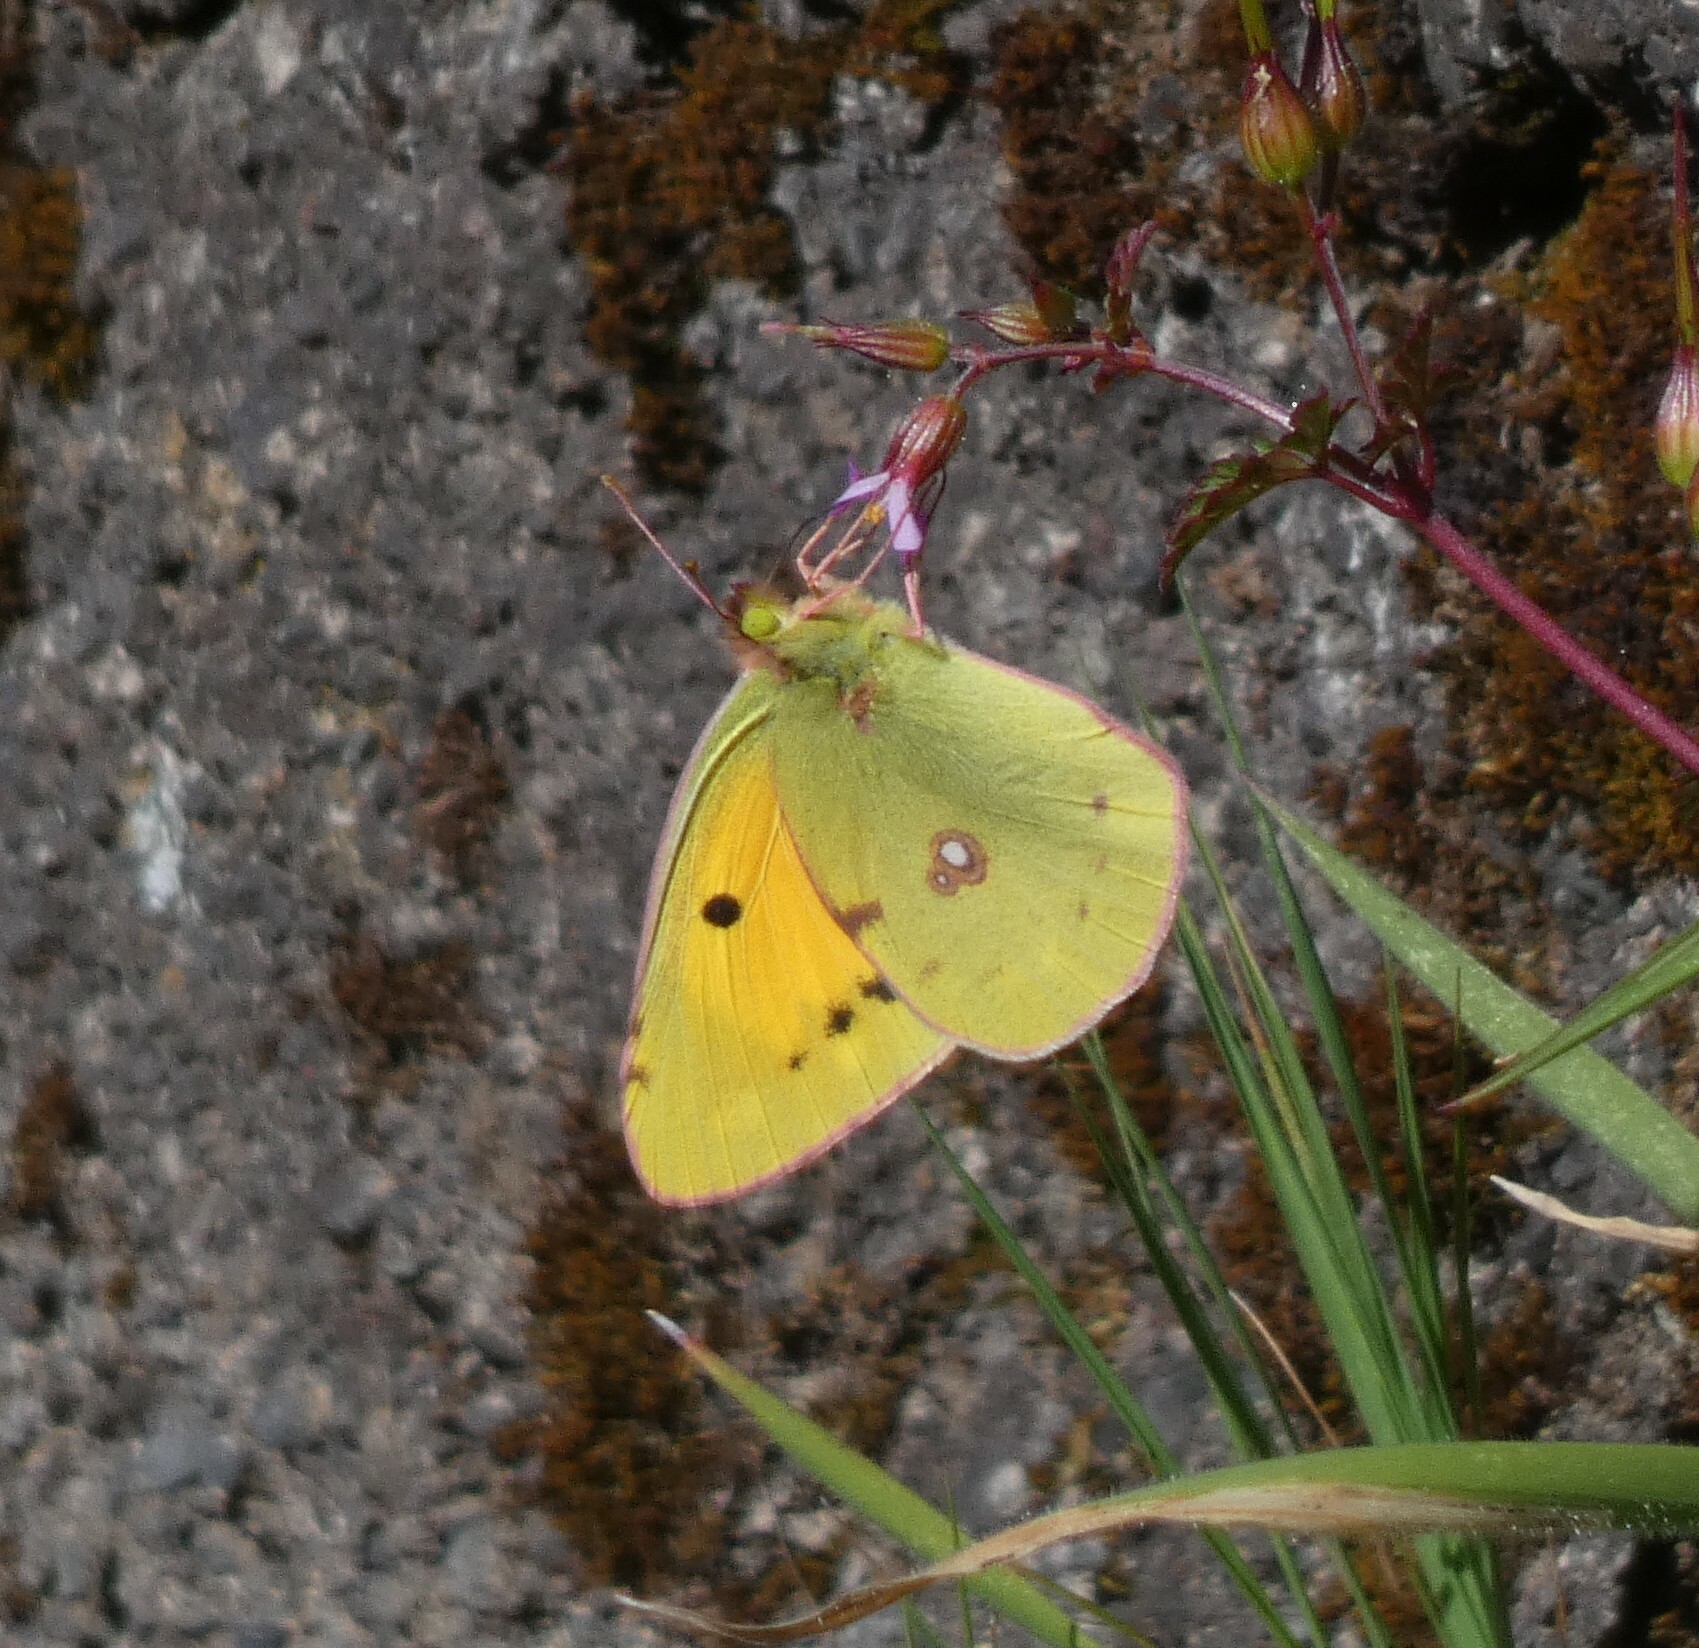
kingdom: Animalia
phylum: Arthropoda
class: Insecta
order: Lepidoptera
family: Pieridae
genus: Colias
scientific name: Colias croceus
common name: Clouded yellow
